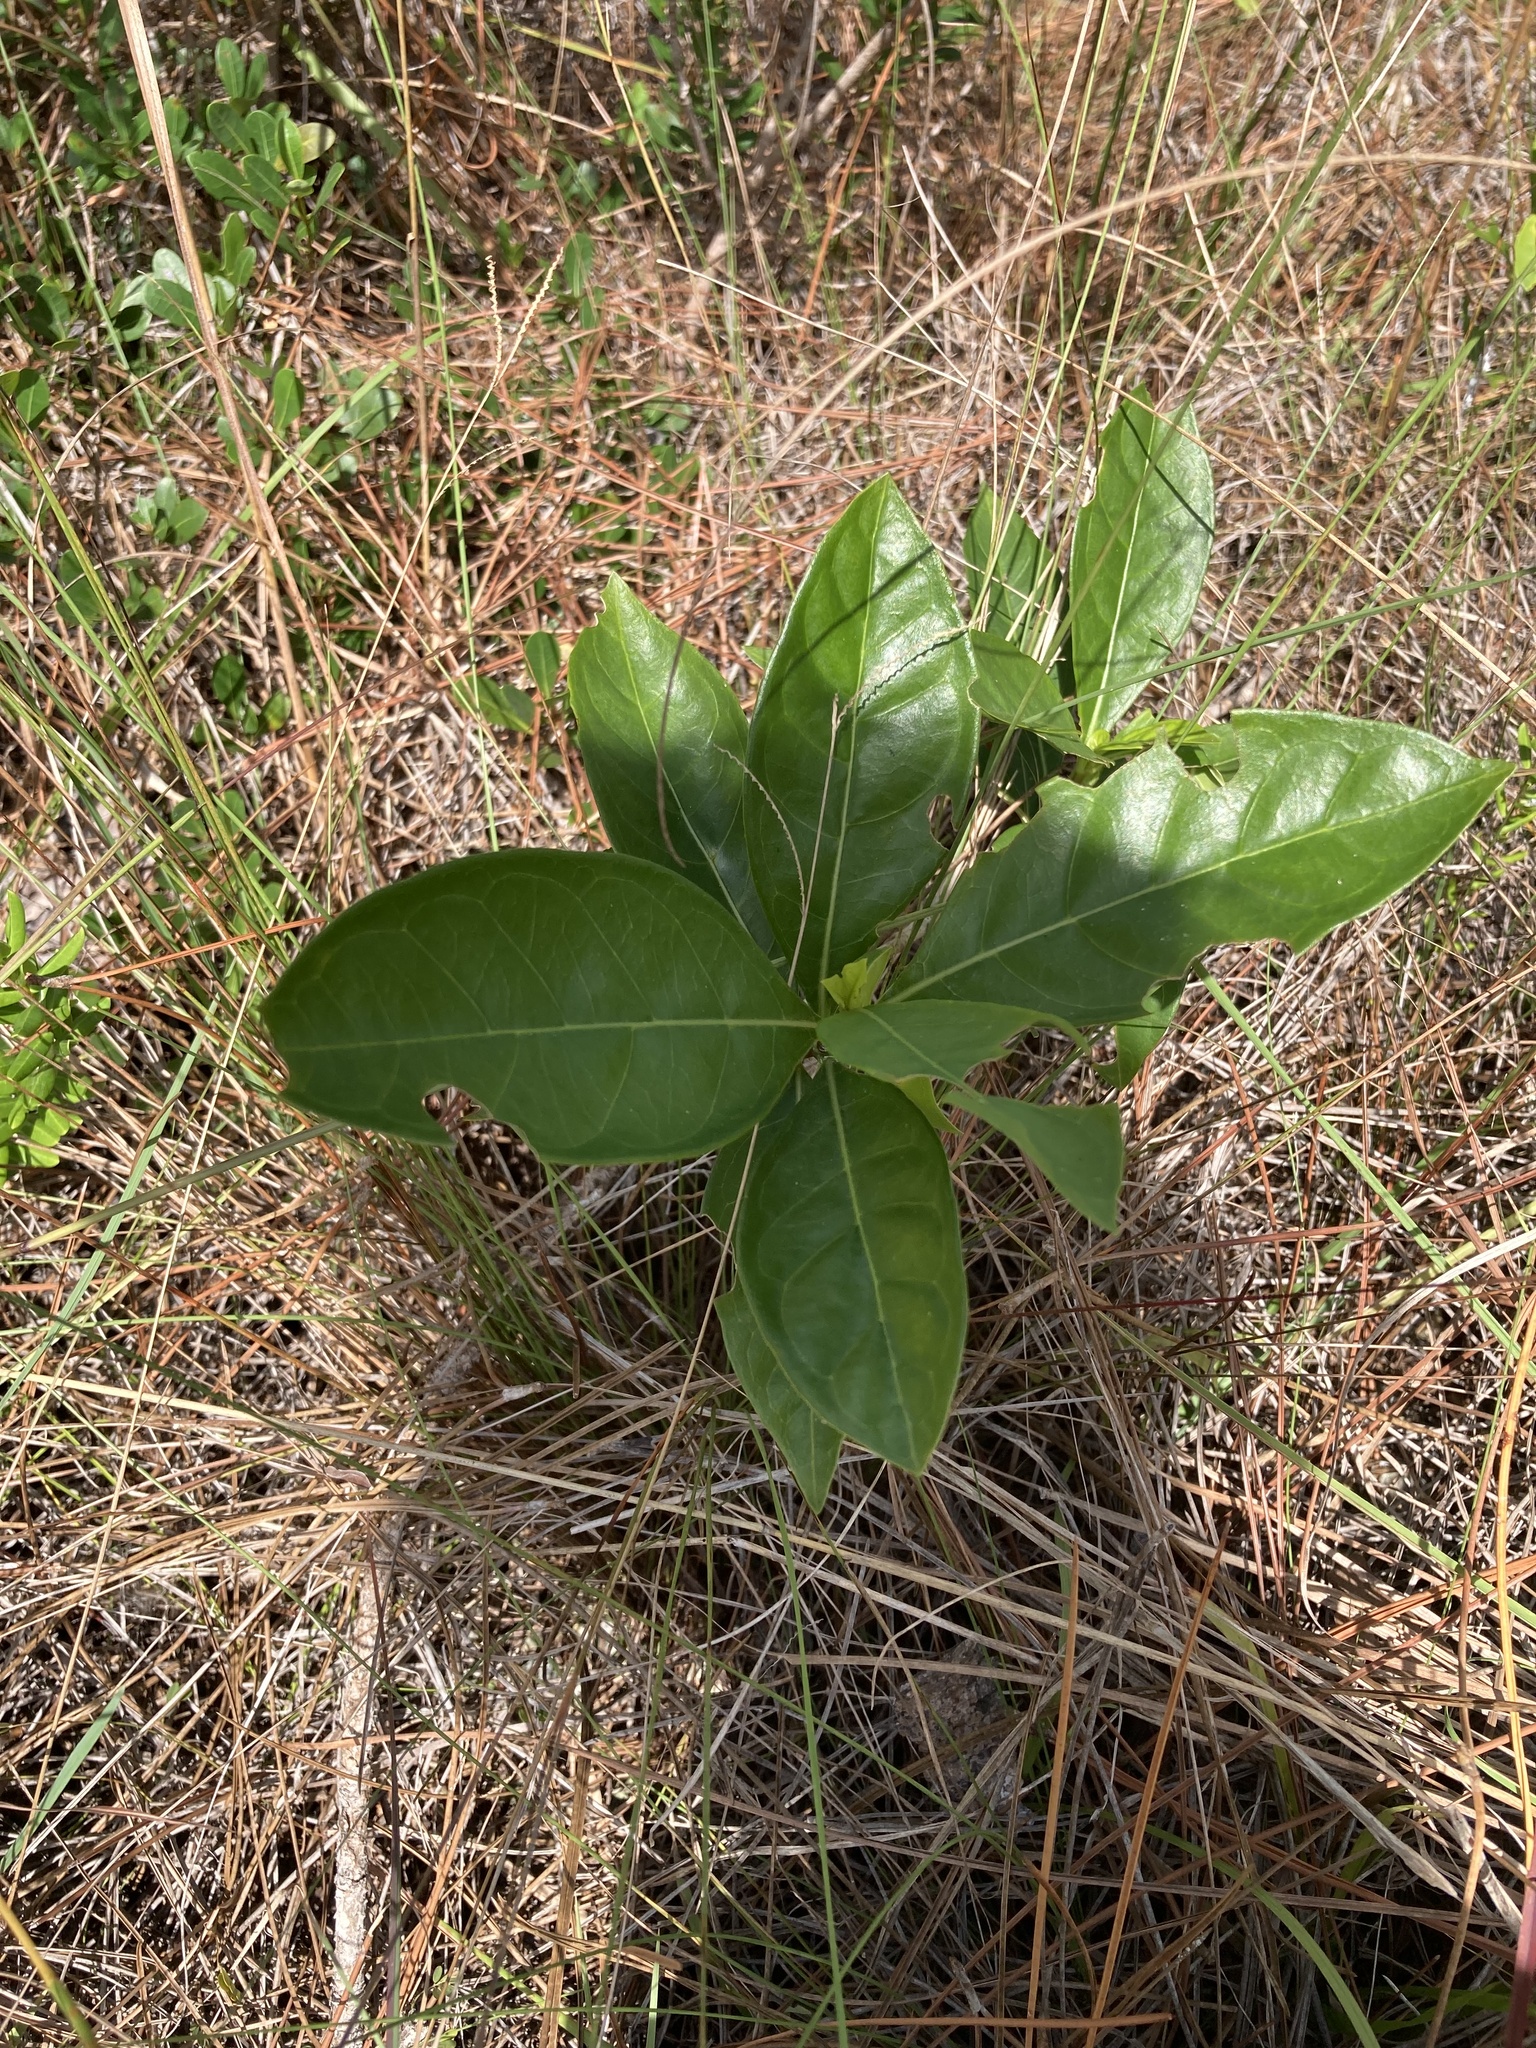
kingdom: Plantae
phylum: Tracheophyta
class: Magnoliopsida
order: Gentianales
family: Rubiaceae
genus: Morinda
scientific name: Morinda royoc
